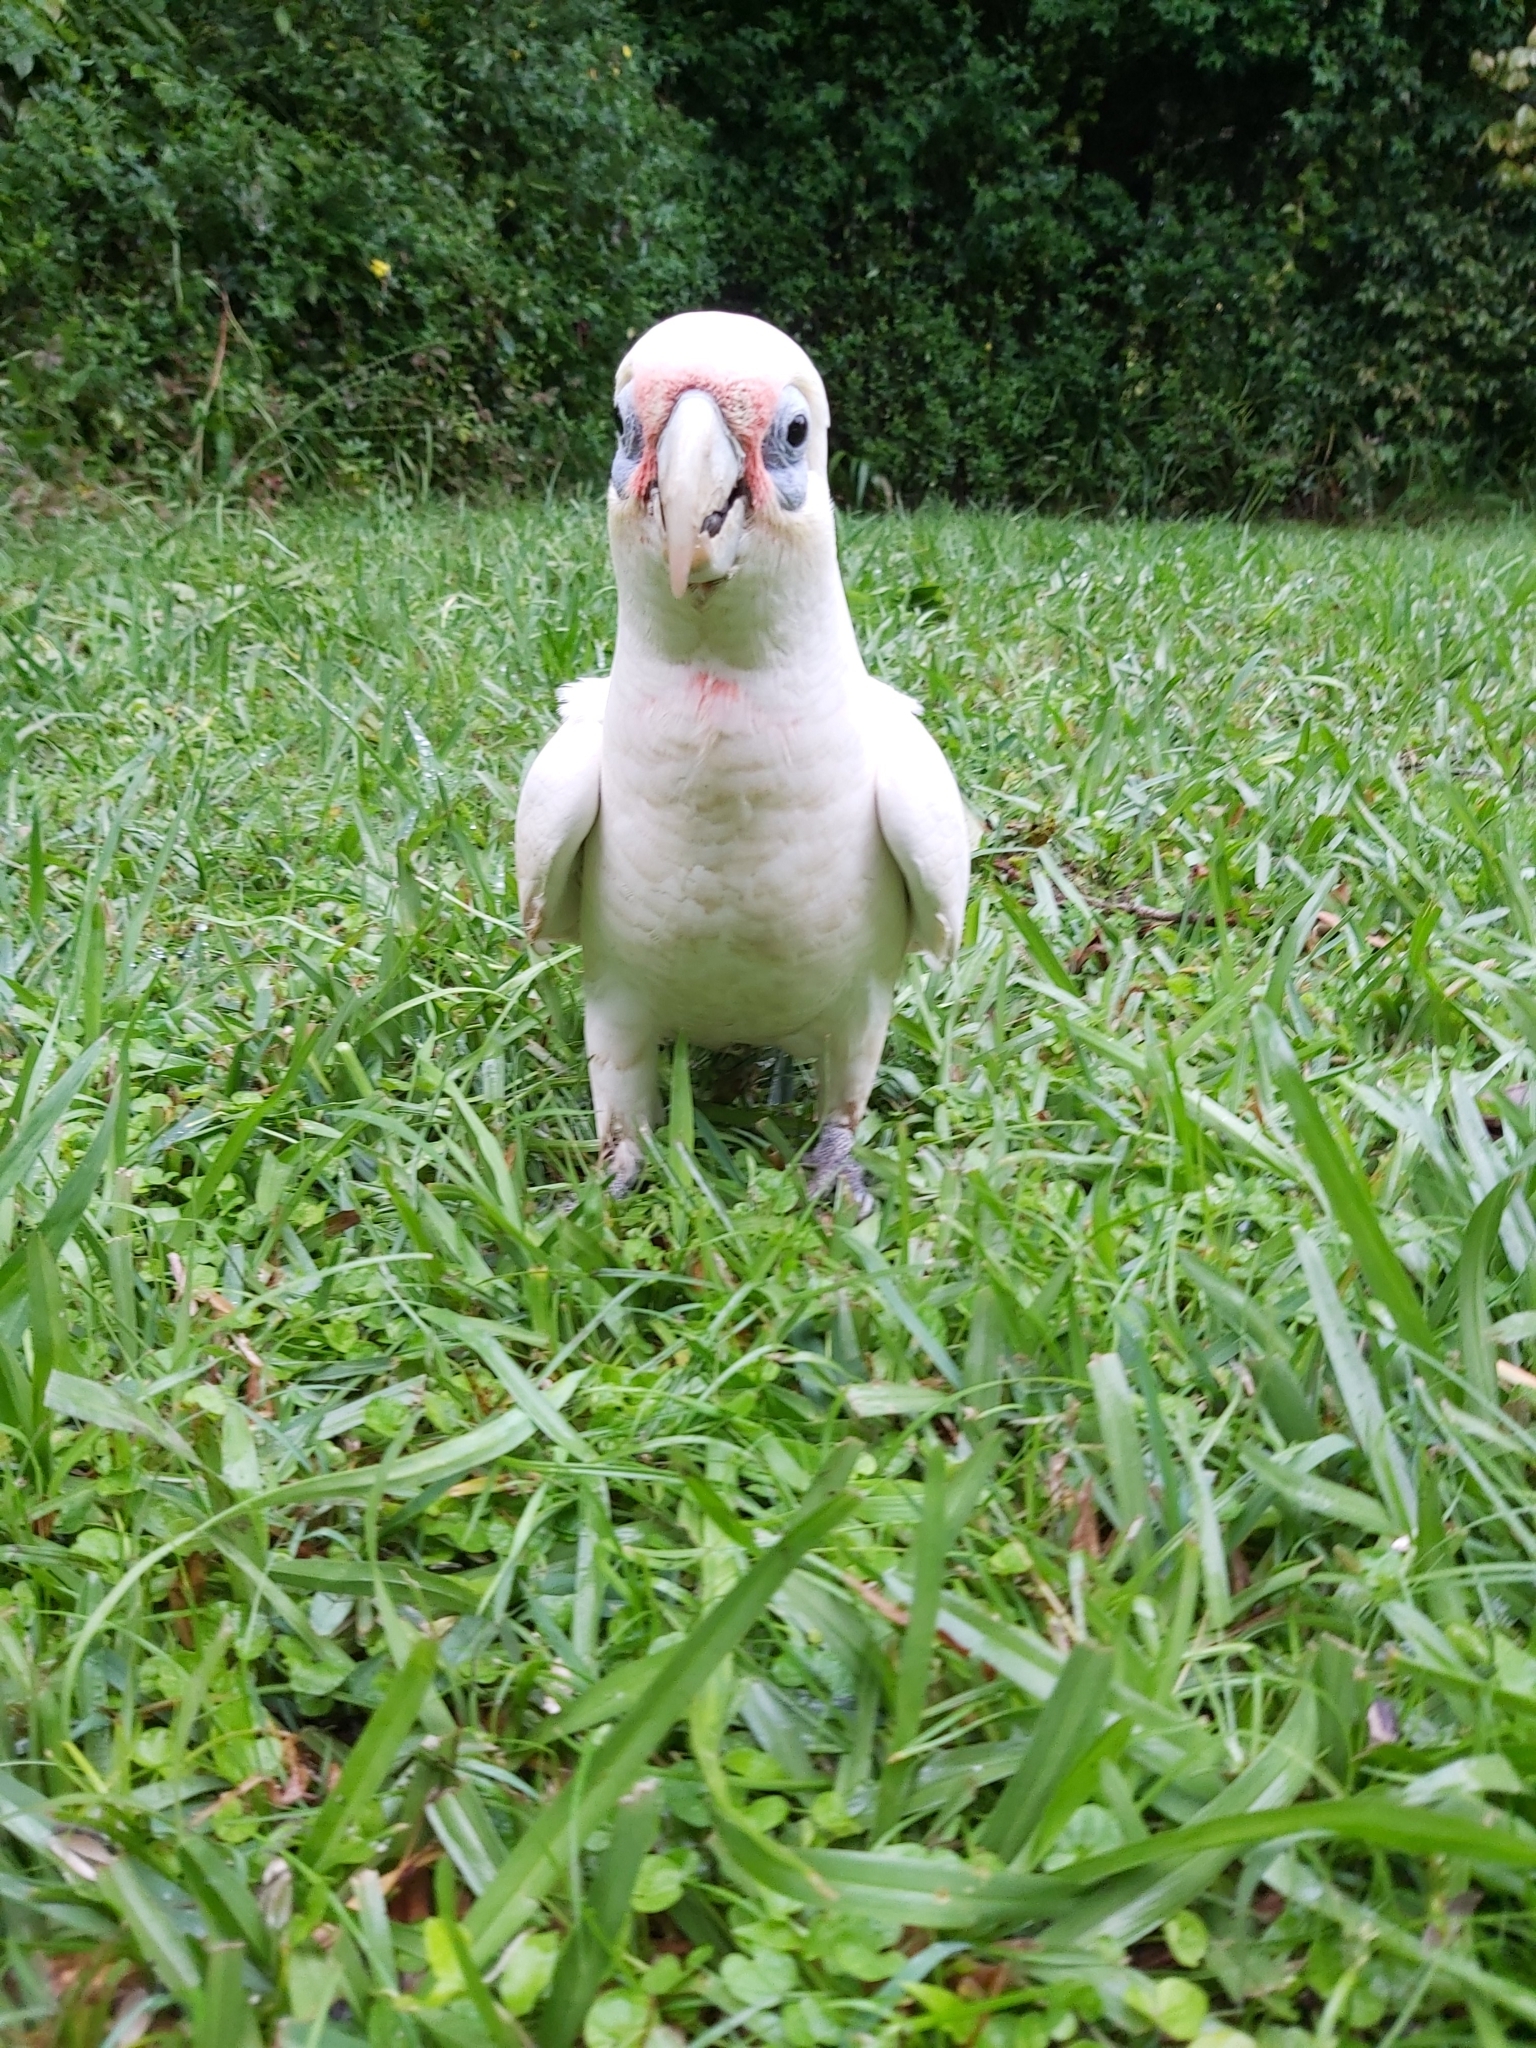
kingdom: Animalia
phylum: Chordata
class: Aves
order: Psittaciformes
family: Psittacidae
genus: Cacatua
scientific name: Cacatua sanguinea
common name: Little corella
